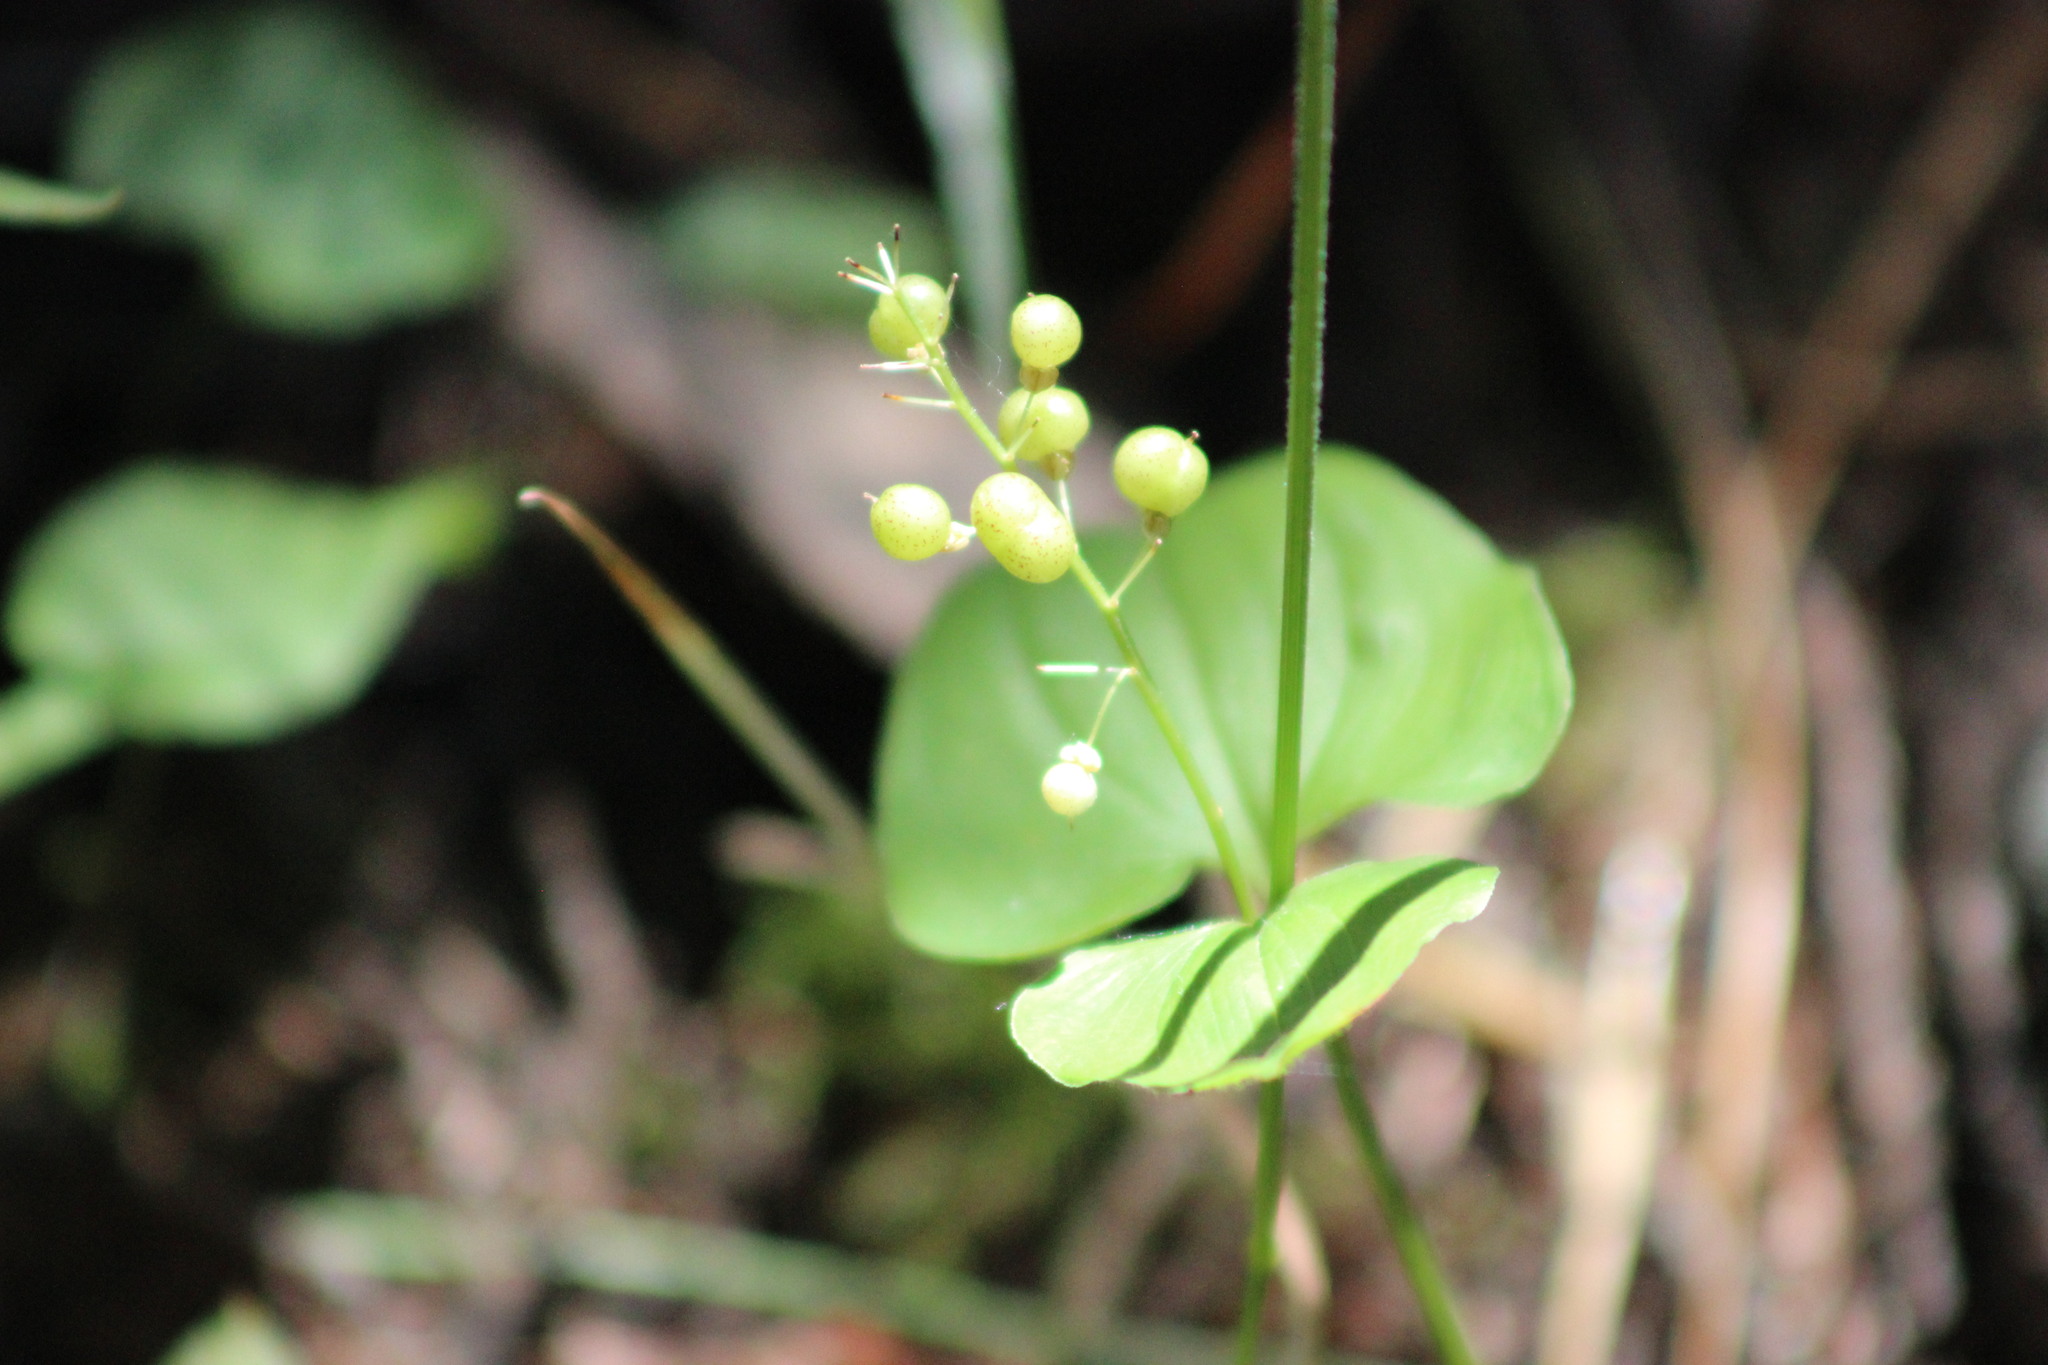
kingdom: Plantae
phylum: Tracheophyta
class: Liliopsida
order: Asparagales
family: Asparagaceae
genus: Maianthemum
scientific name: Maianthemum bifolium
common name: May lily
